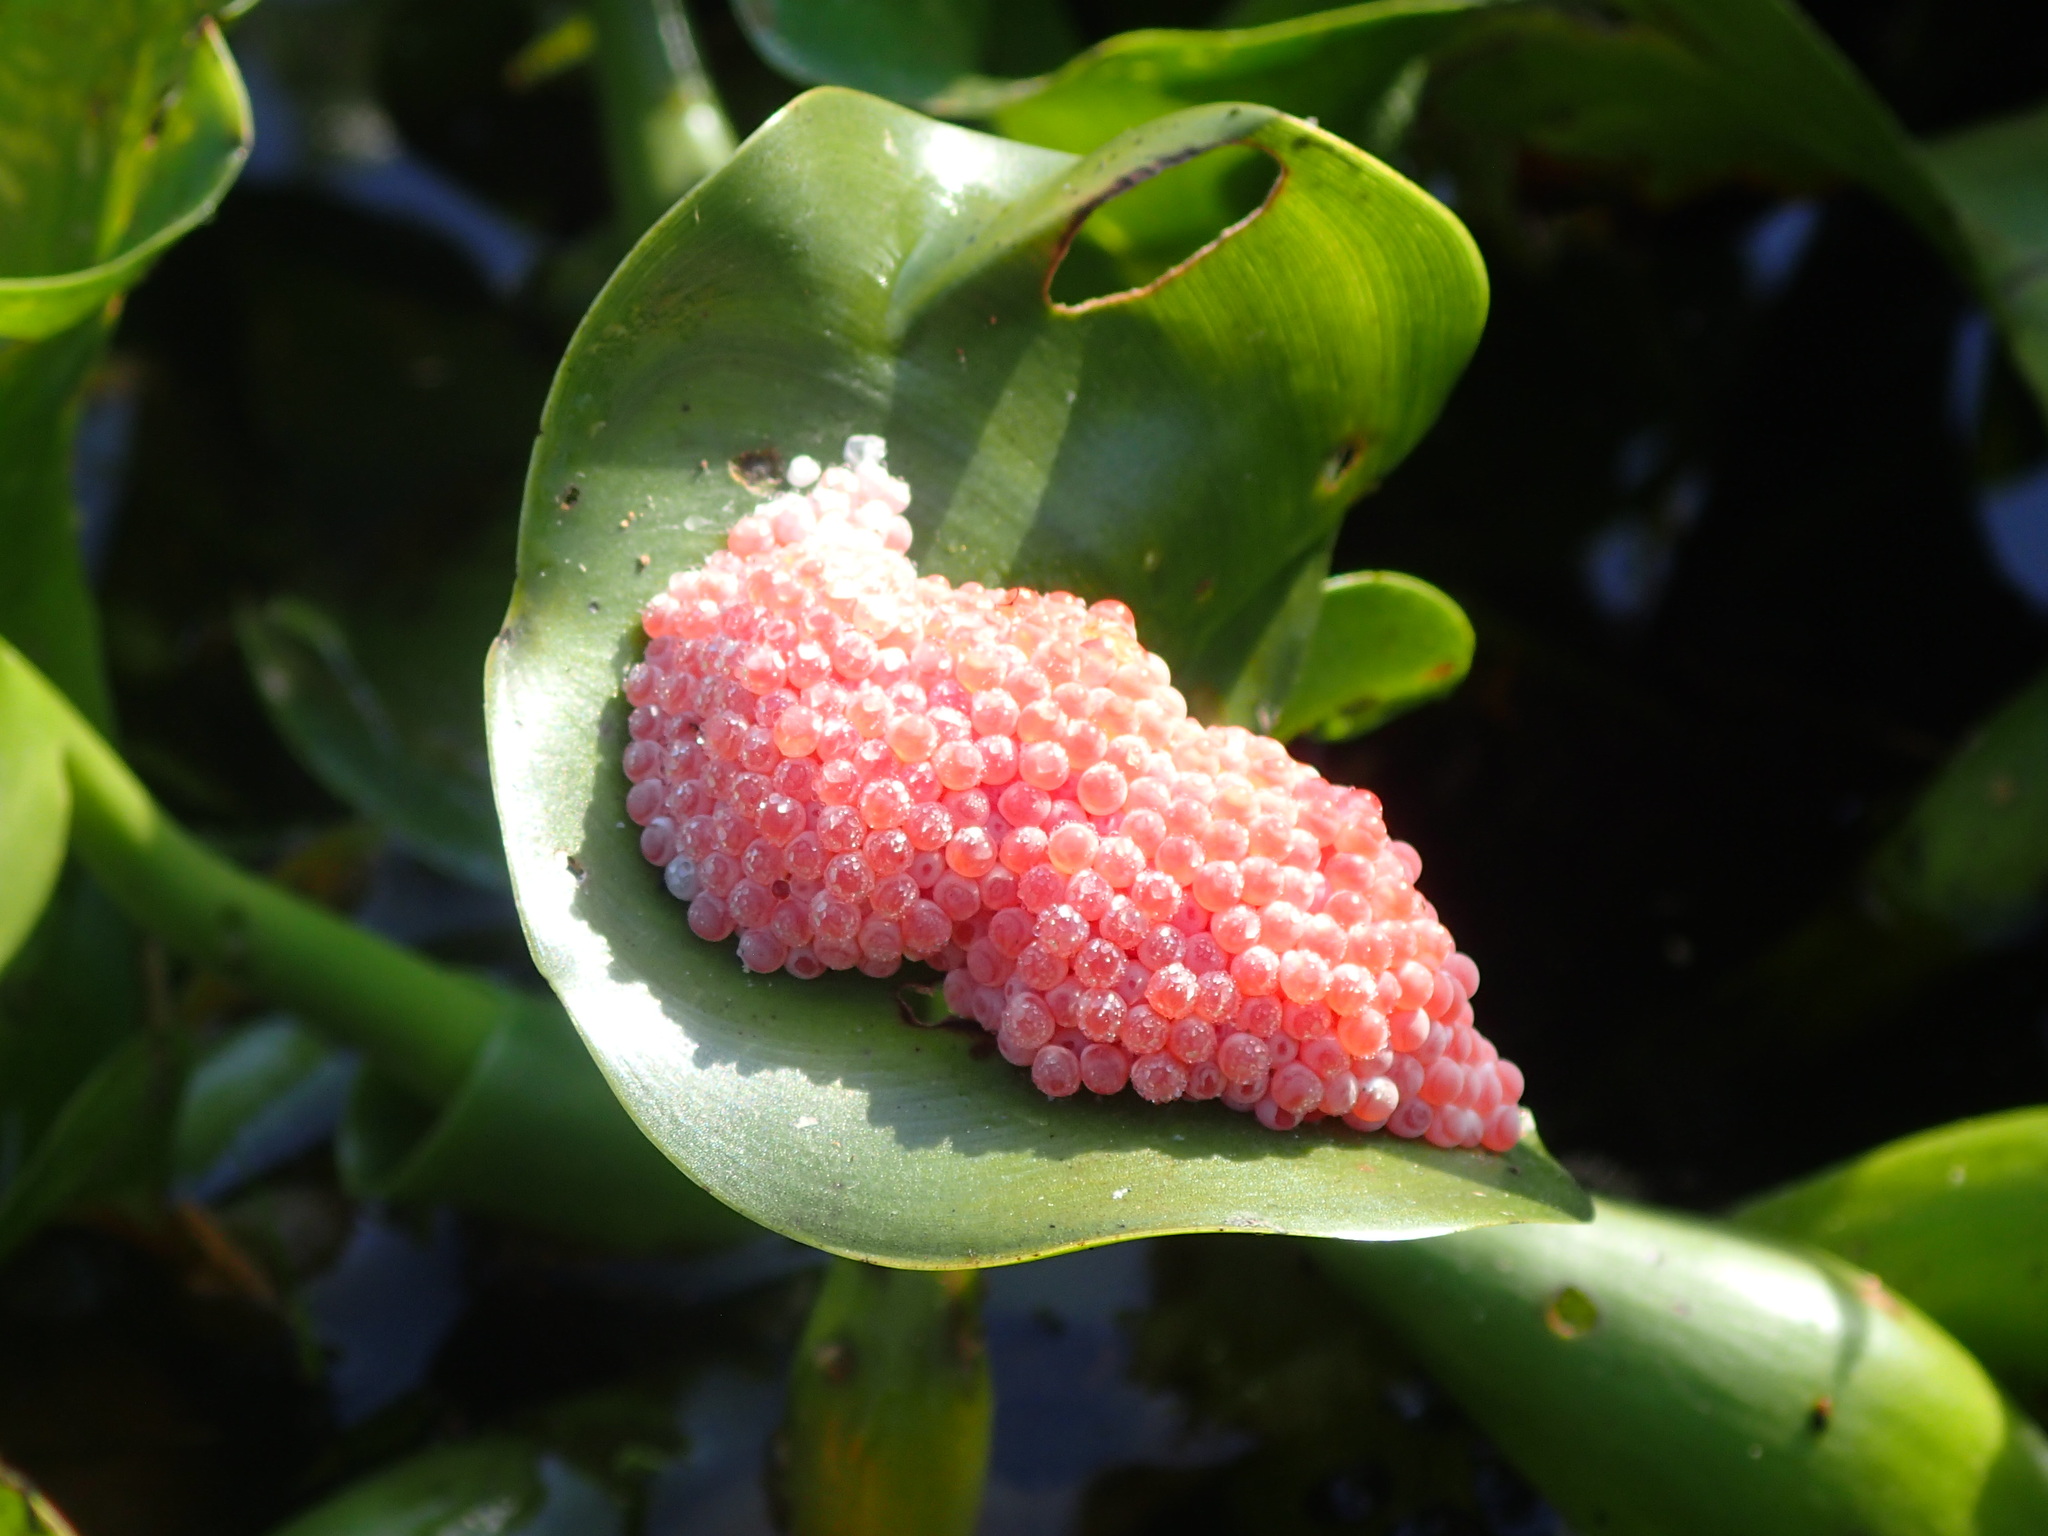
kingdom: Animalia
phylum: Mollusca
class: Gastropoda
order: Architaenioglossa
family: Ampullariidae
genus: Pomacea
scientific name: Pomacea maculata
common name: Giant applesnail
